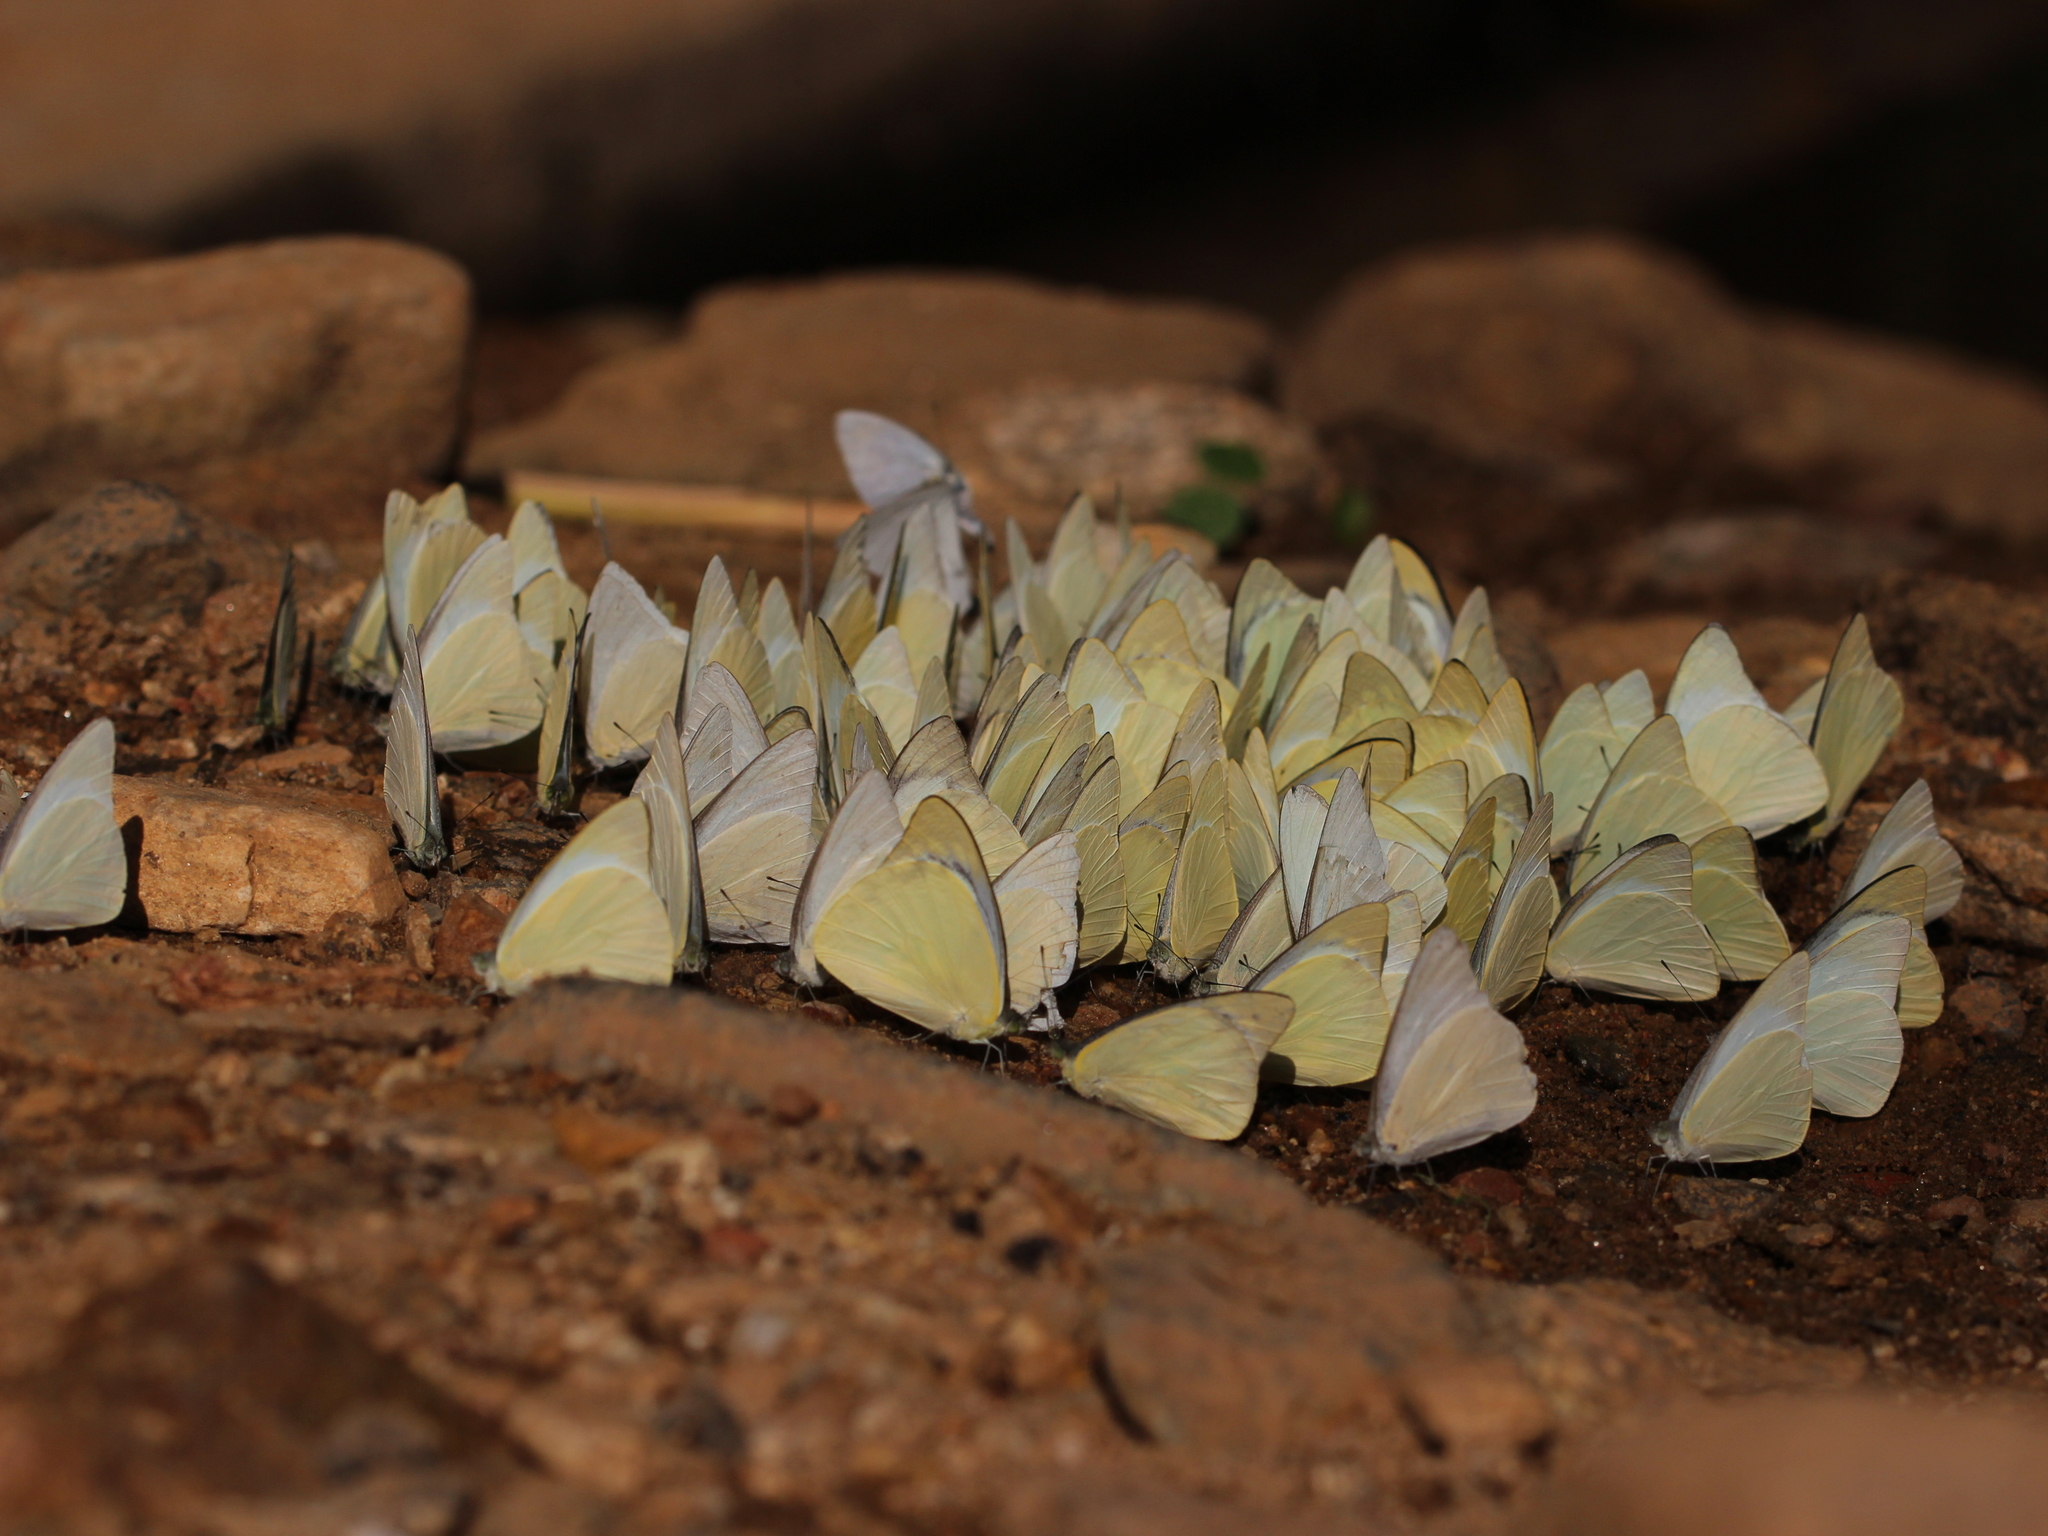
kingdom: Animalia
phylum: Arthropoda
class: Insecta
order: Lepidoptera
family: Pieridae
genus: Appias
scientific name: Appias albina
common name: Common albatross
